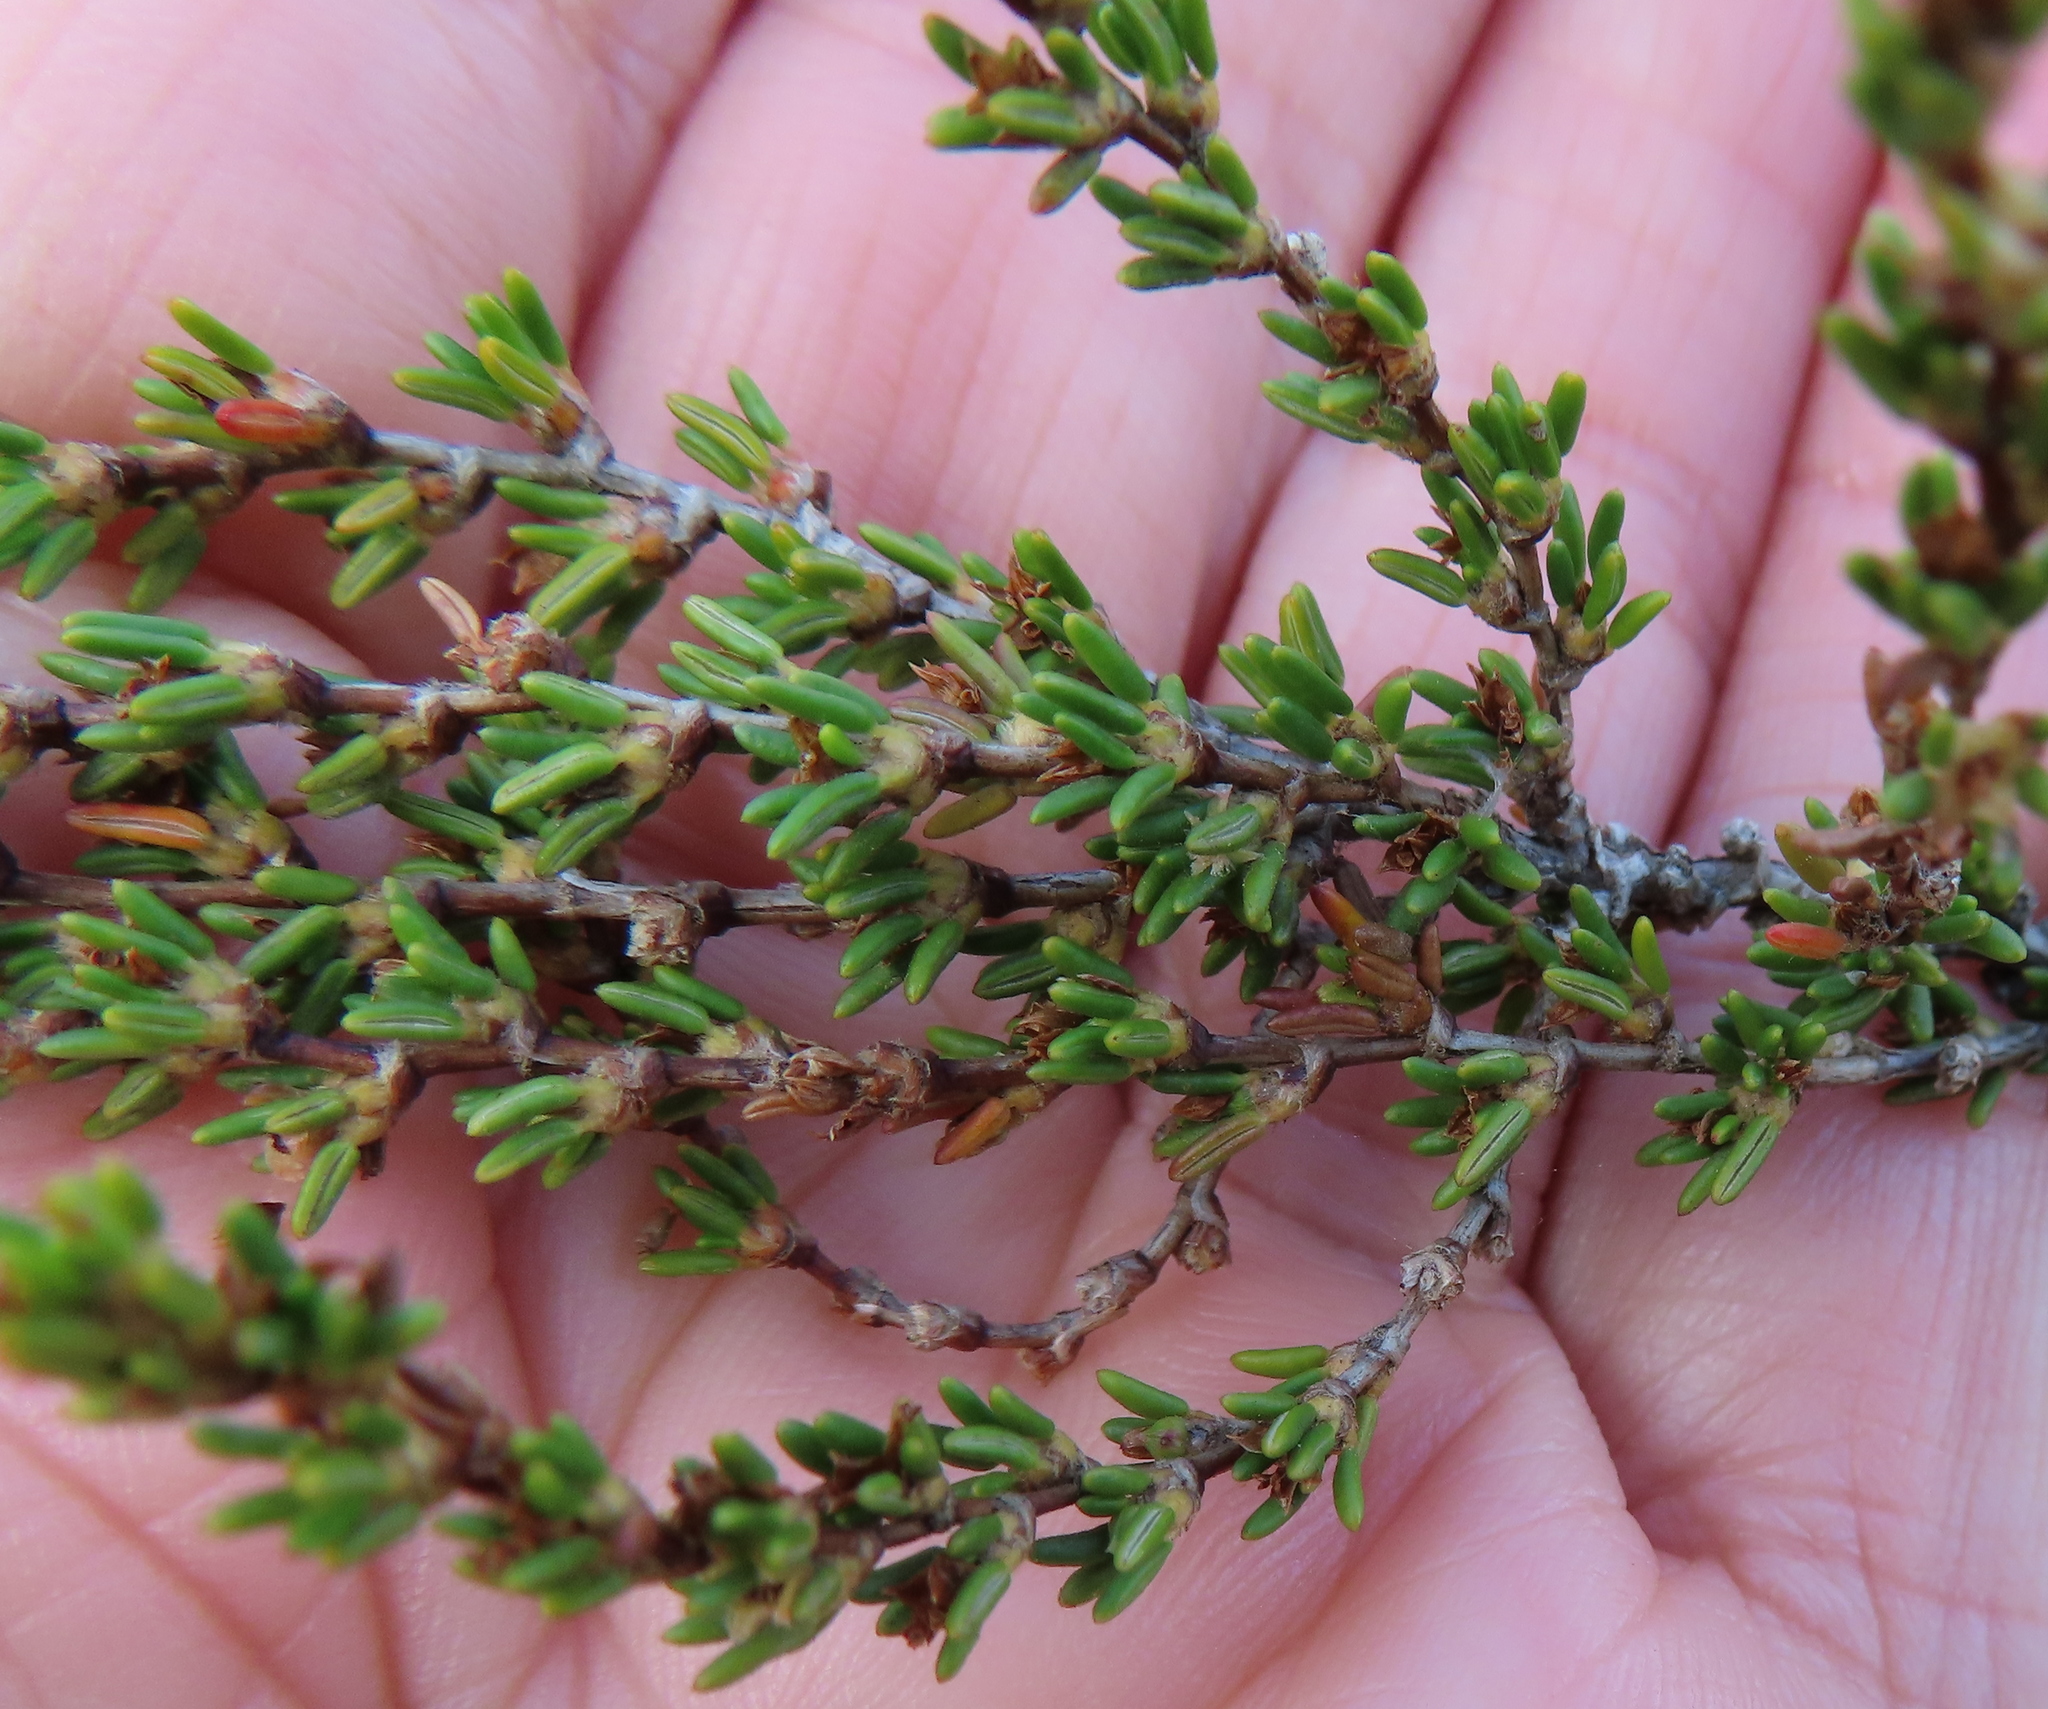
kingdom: Plantae
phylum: Tracheophyta
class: Magnoliopsida
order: Rosales
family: Rosaceae
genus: Cliffortia
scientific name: Cliffortia brevifolia
